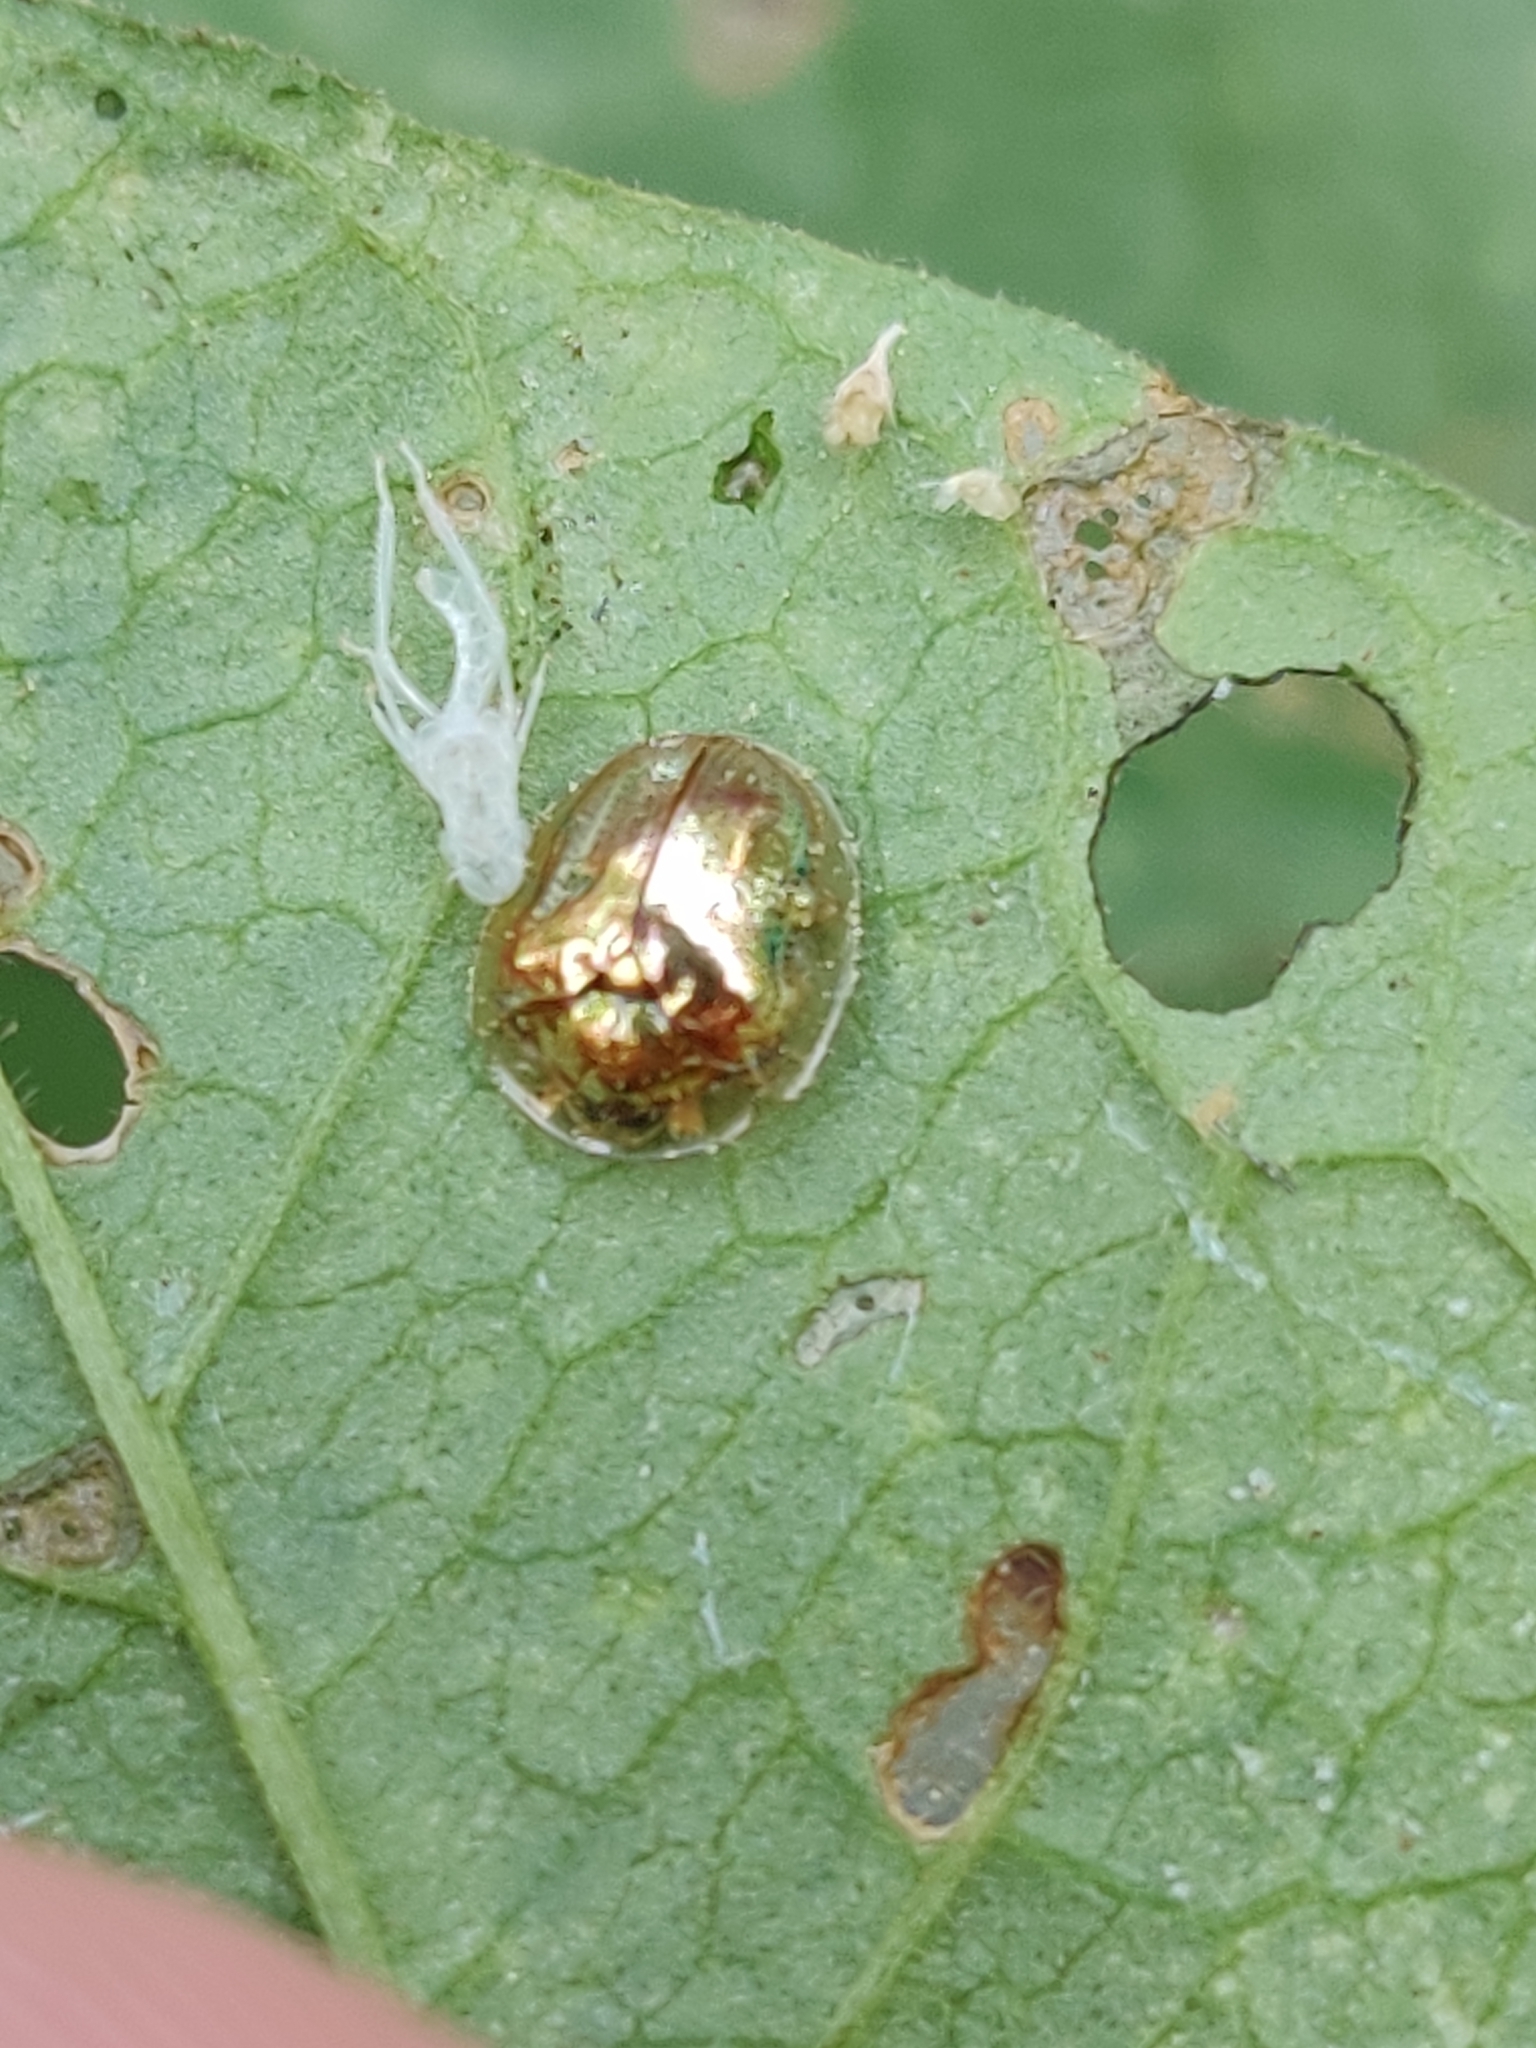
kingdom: Animalia
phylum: Arthropoda
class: Insecta
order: Coleoptera
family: Chrysomelidae
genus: Charidotella
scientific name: Charidotella sexpunctata
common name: Golden tortoise beetle
